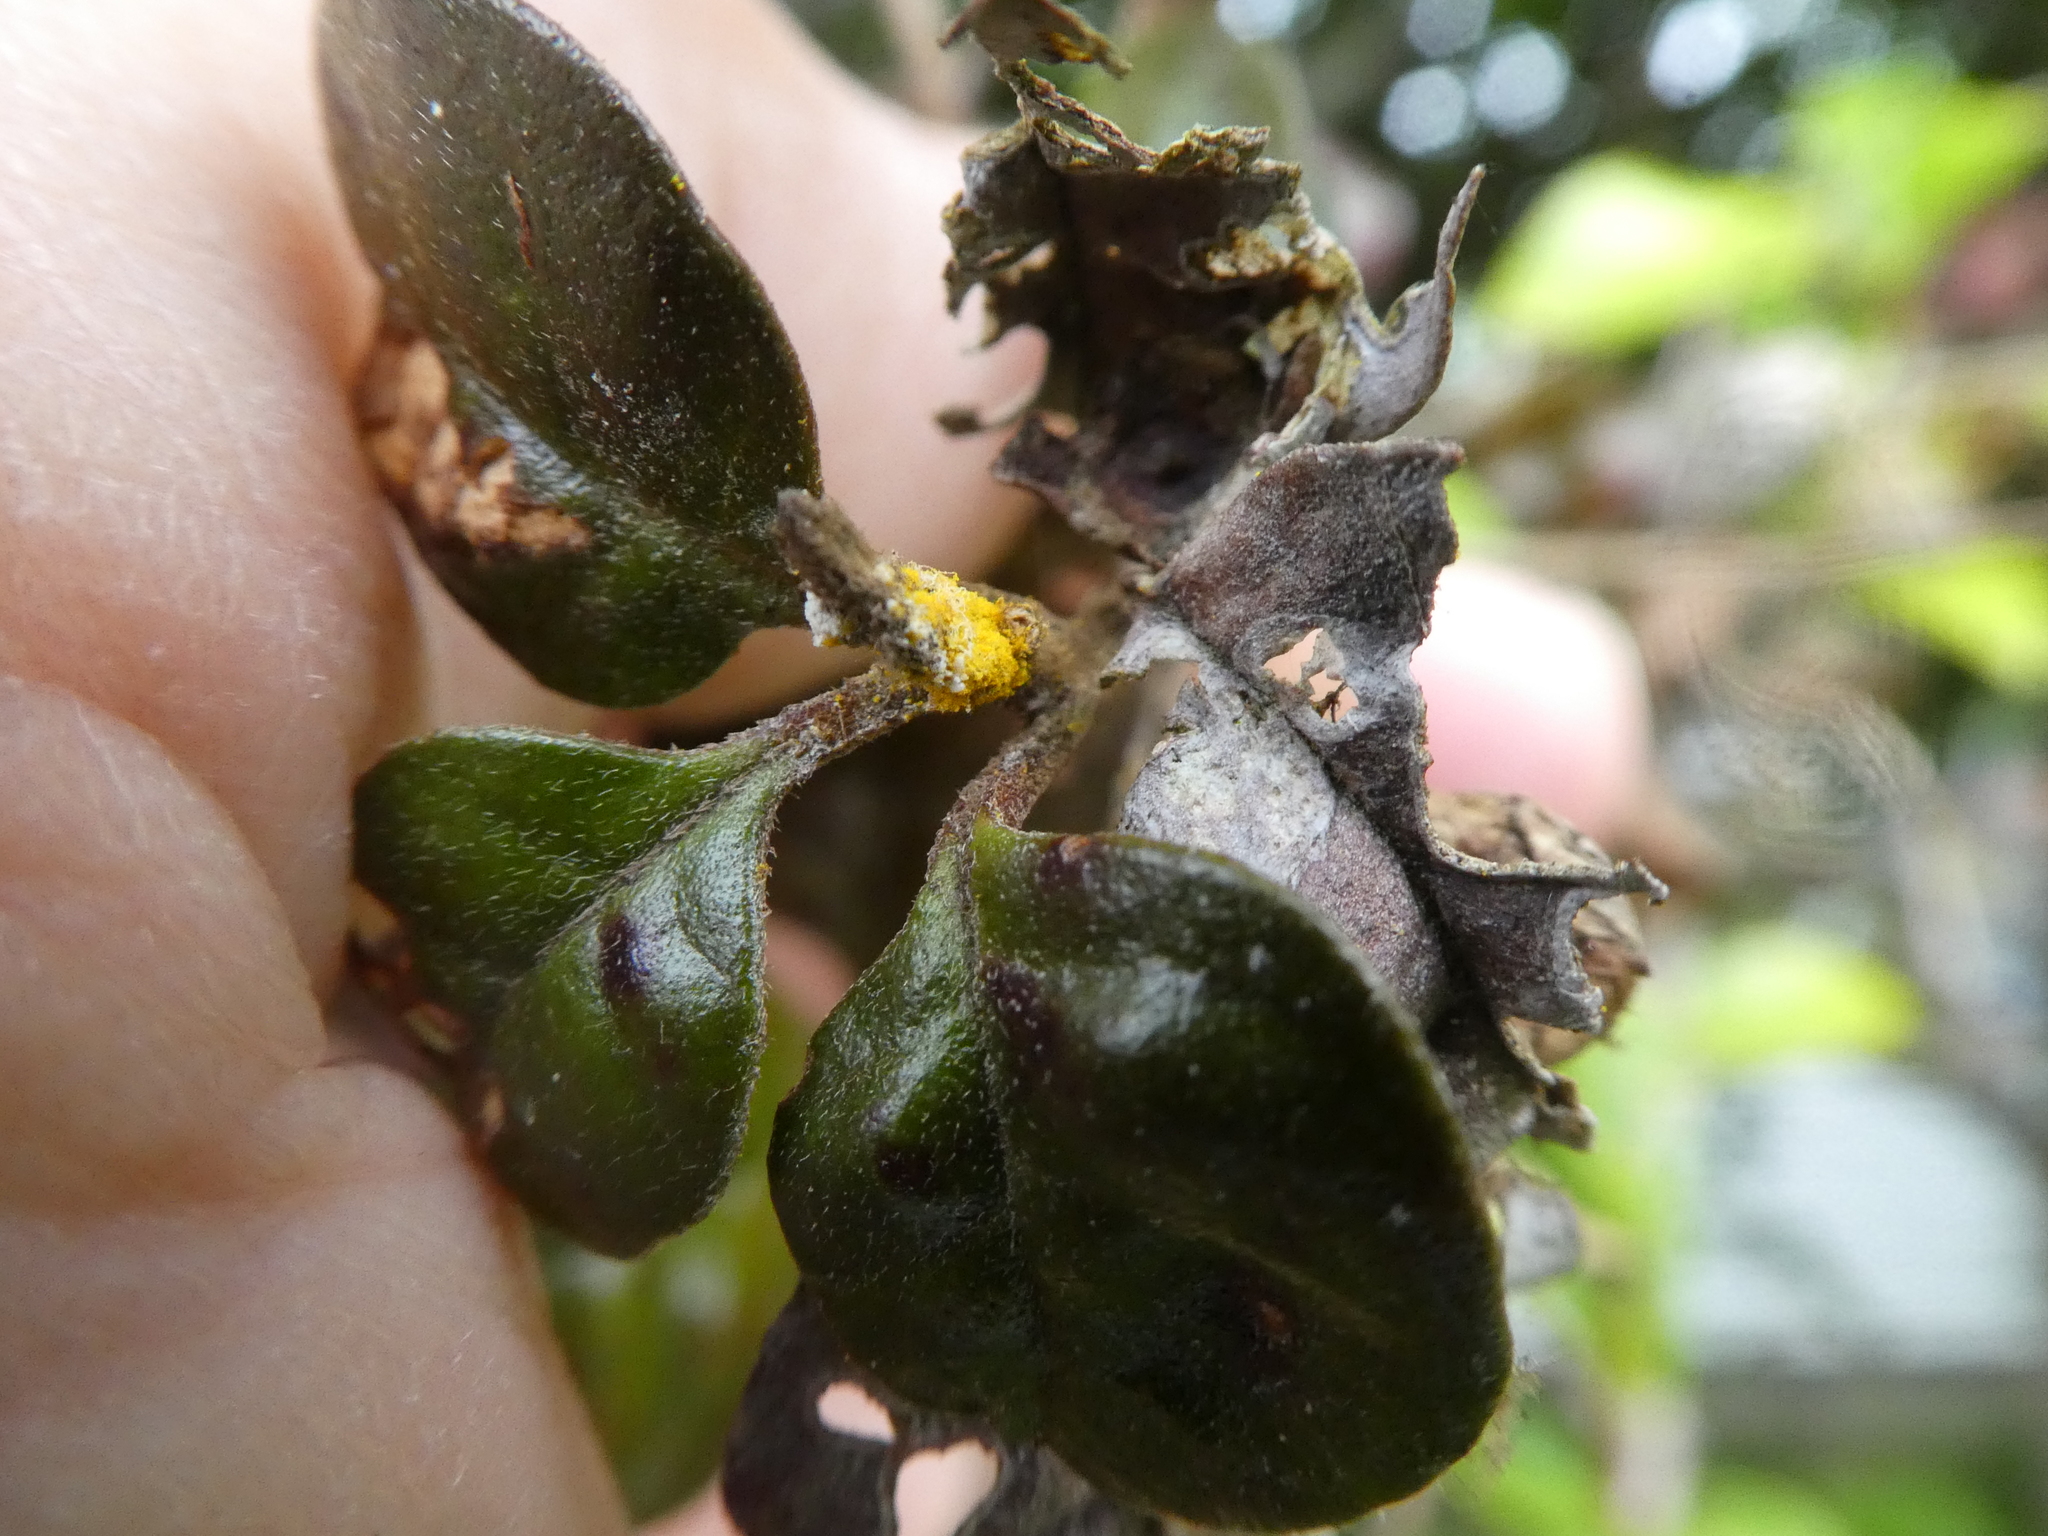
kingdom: Fungi
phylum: Basidiomycota
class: Pucciniomycetes
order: Pucciniales
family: Sphaerophragmiaceae
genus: Austropuccinia
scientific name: Austropuccinia psidii
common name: Myrtle rust
